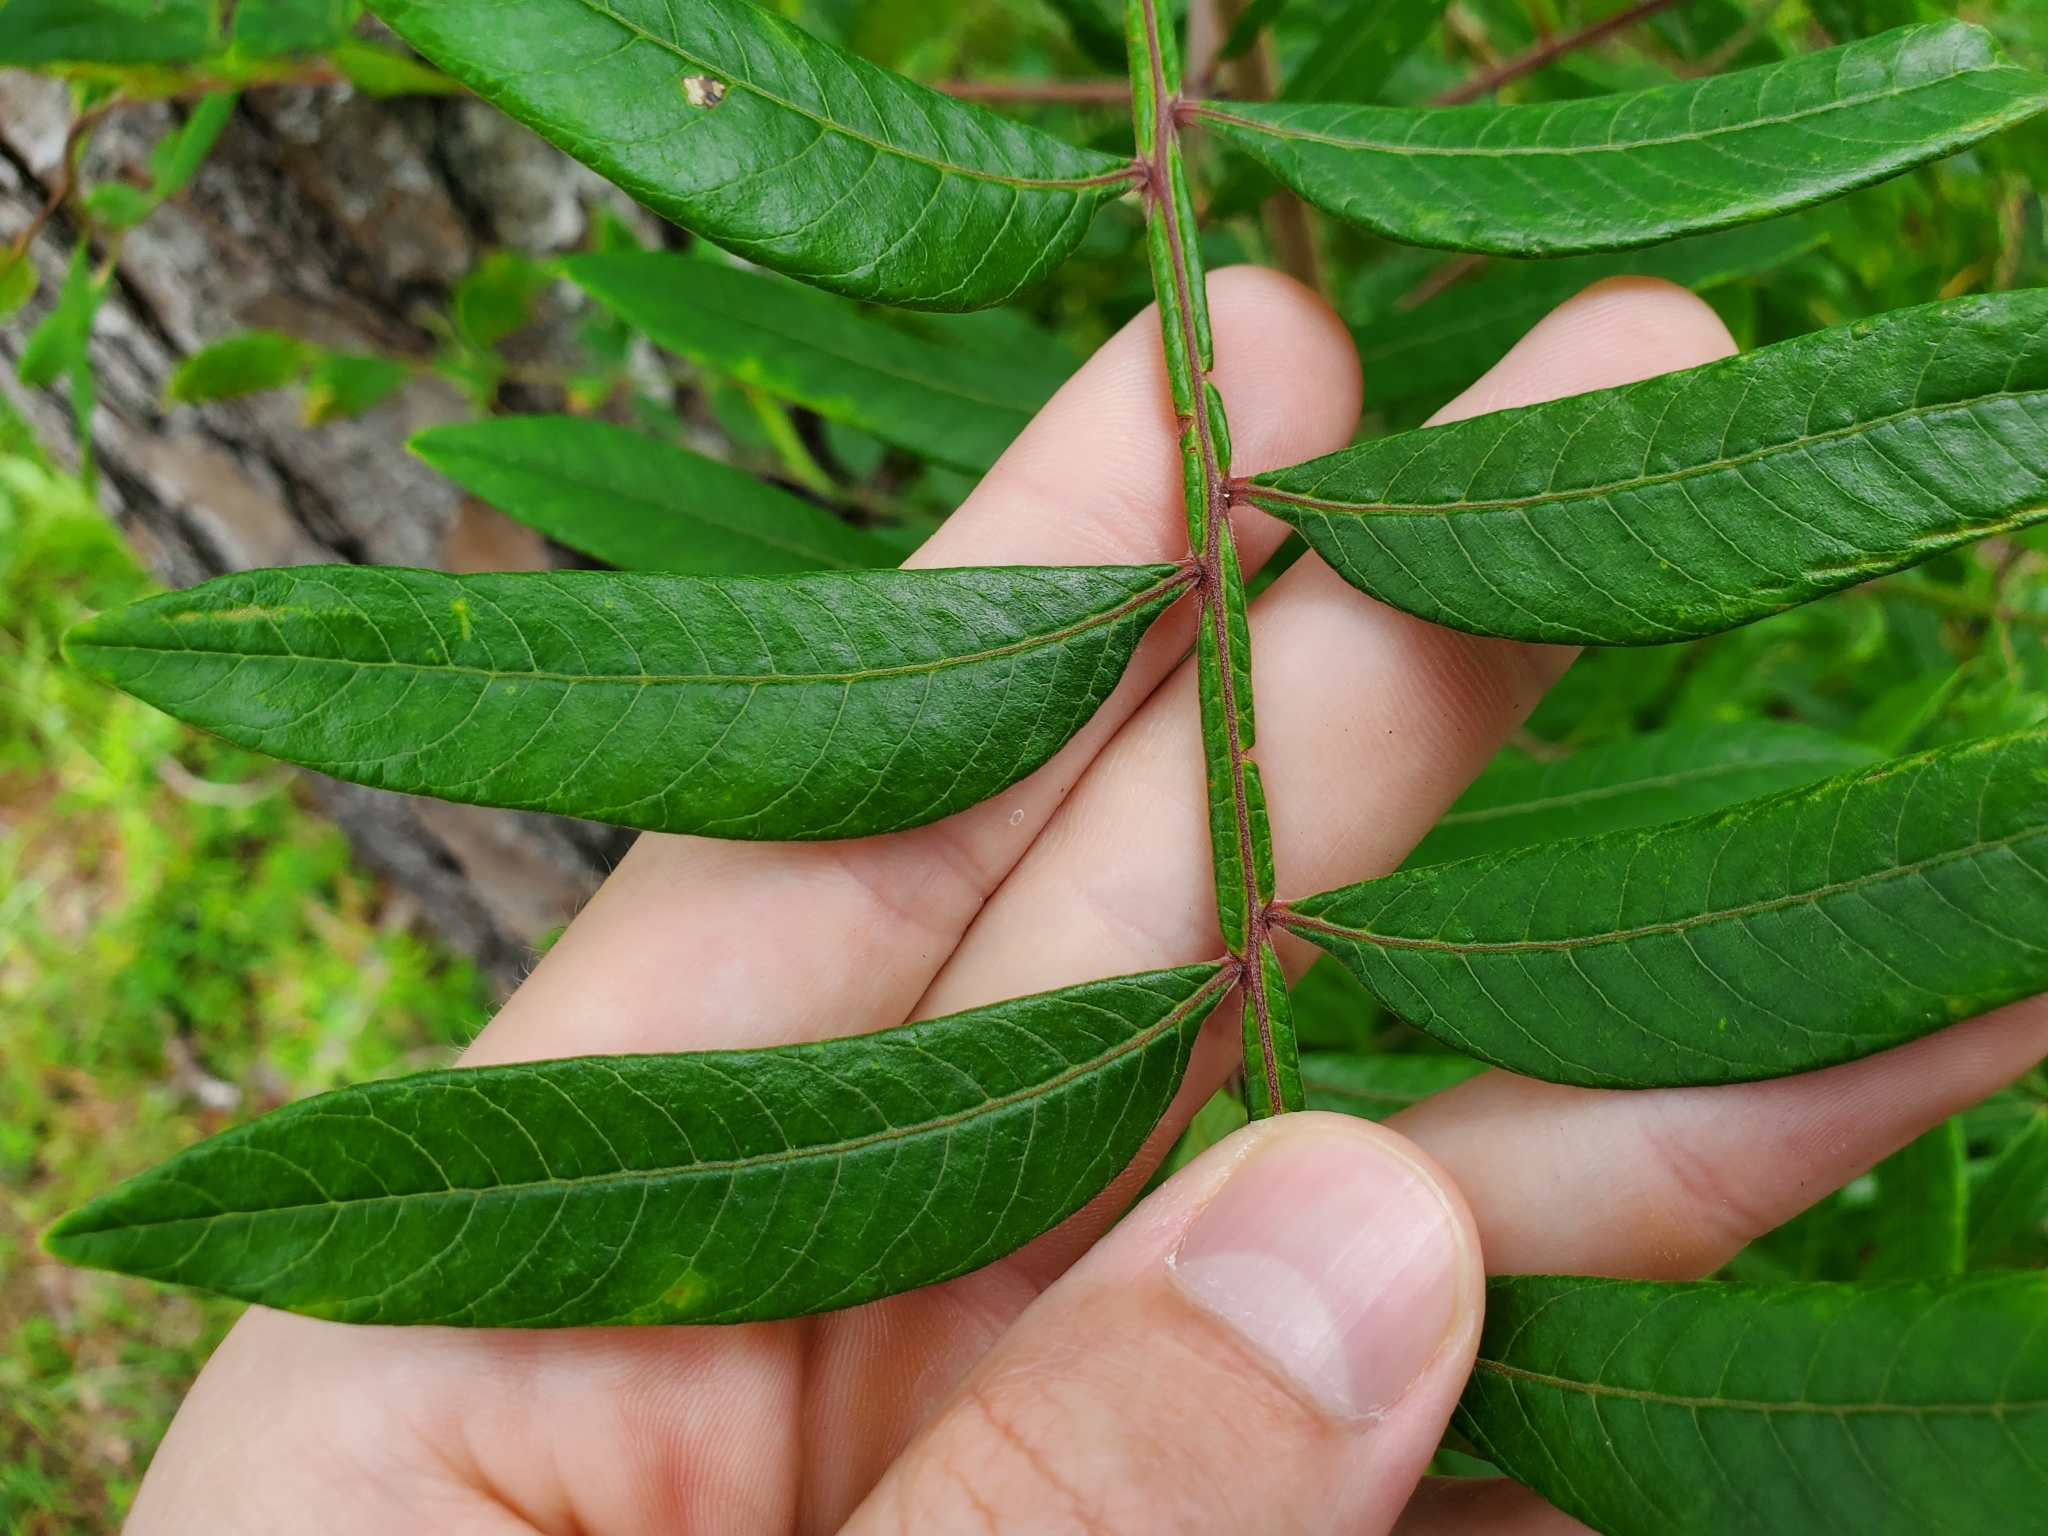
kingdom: Plantae
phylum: Tracheophyta
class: Magnoliopsida
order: Sapindales
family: Anacardiaceae
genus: Rhus
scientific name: Rhus copallina
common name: Shining sumac
